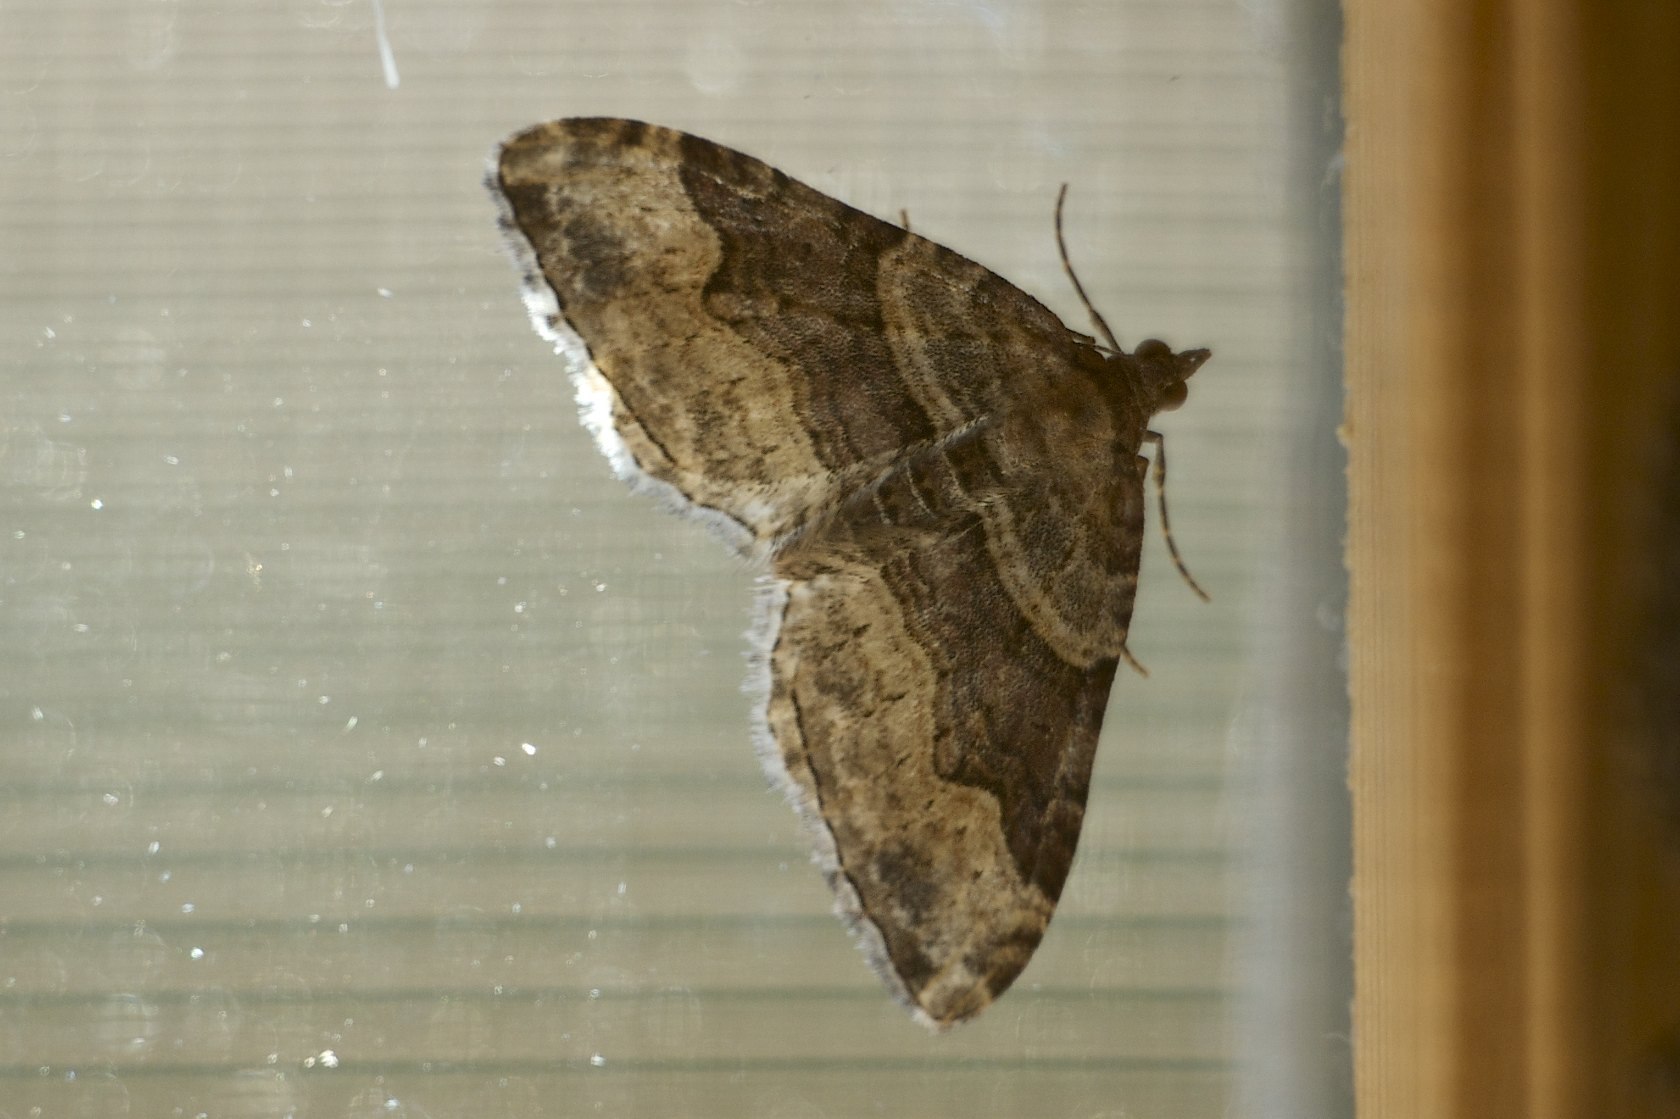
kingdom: Animalia
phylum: Arthropoda
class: Insecta
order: Lepidoptera
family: Geometridae
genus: Xanthorhoe
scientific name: Xanthorhoe defensaria
